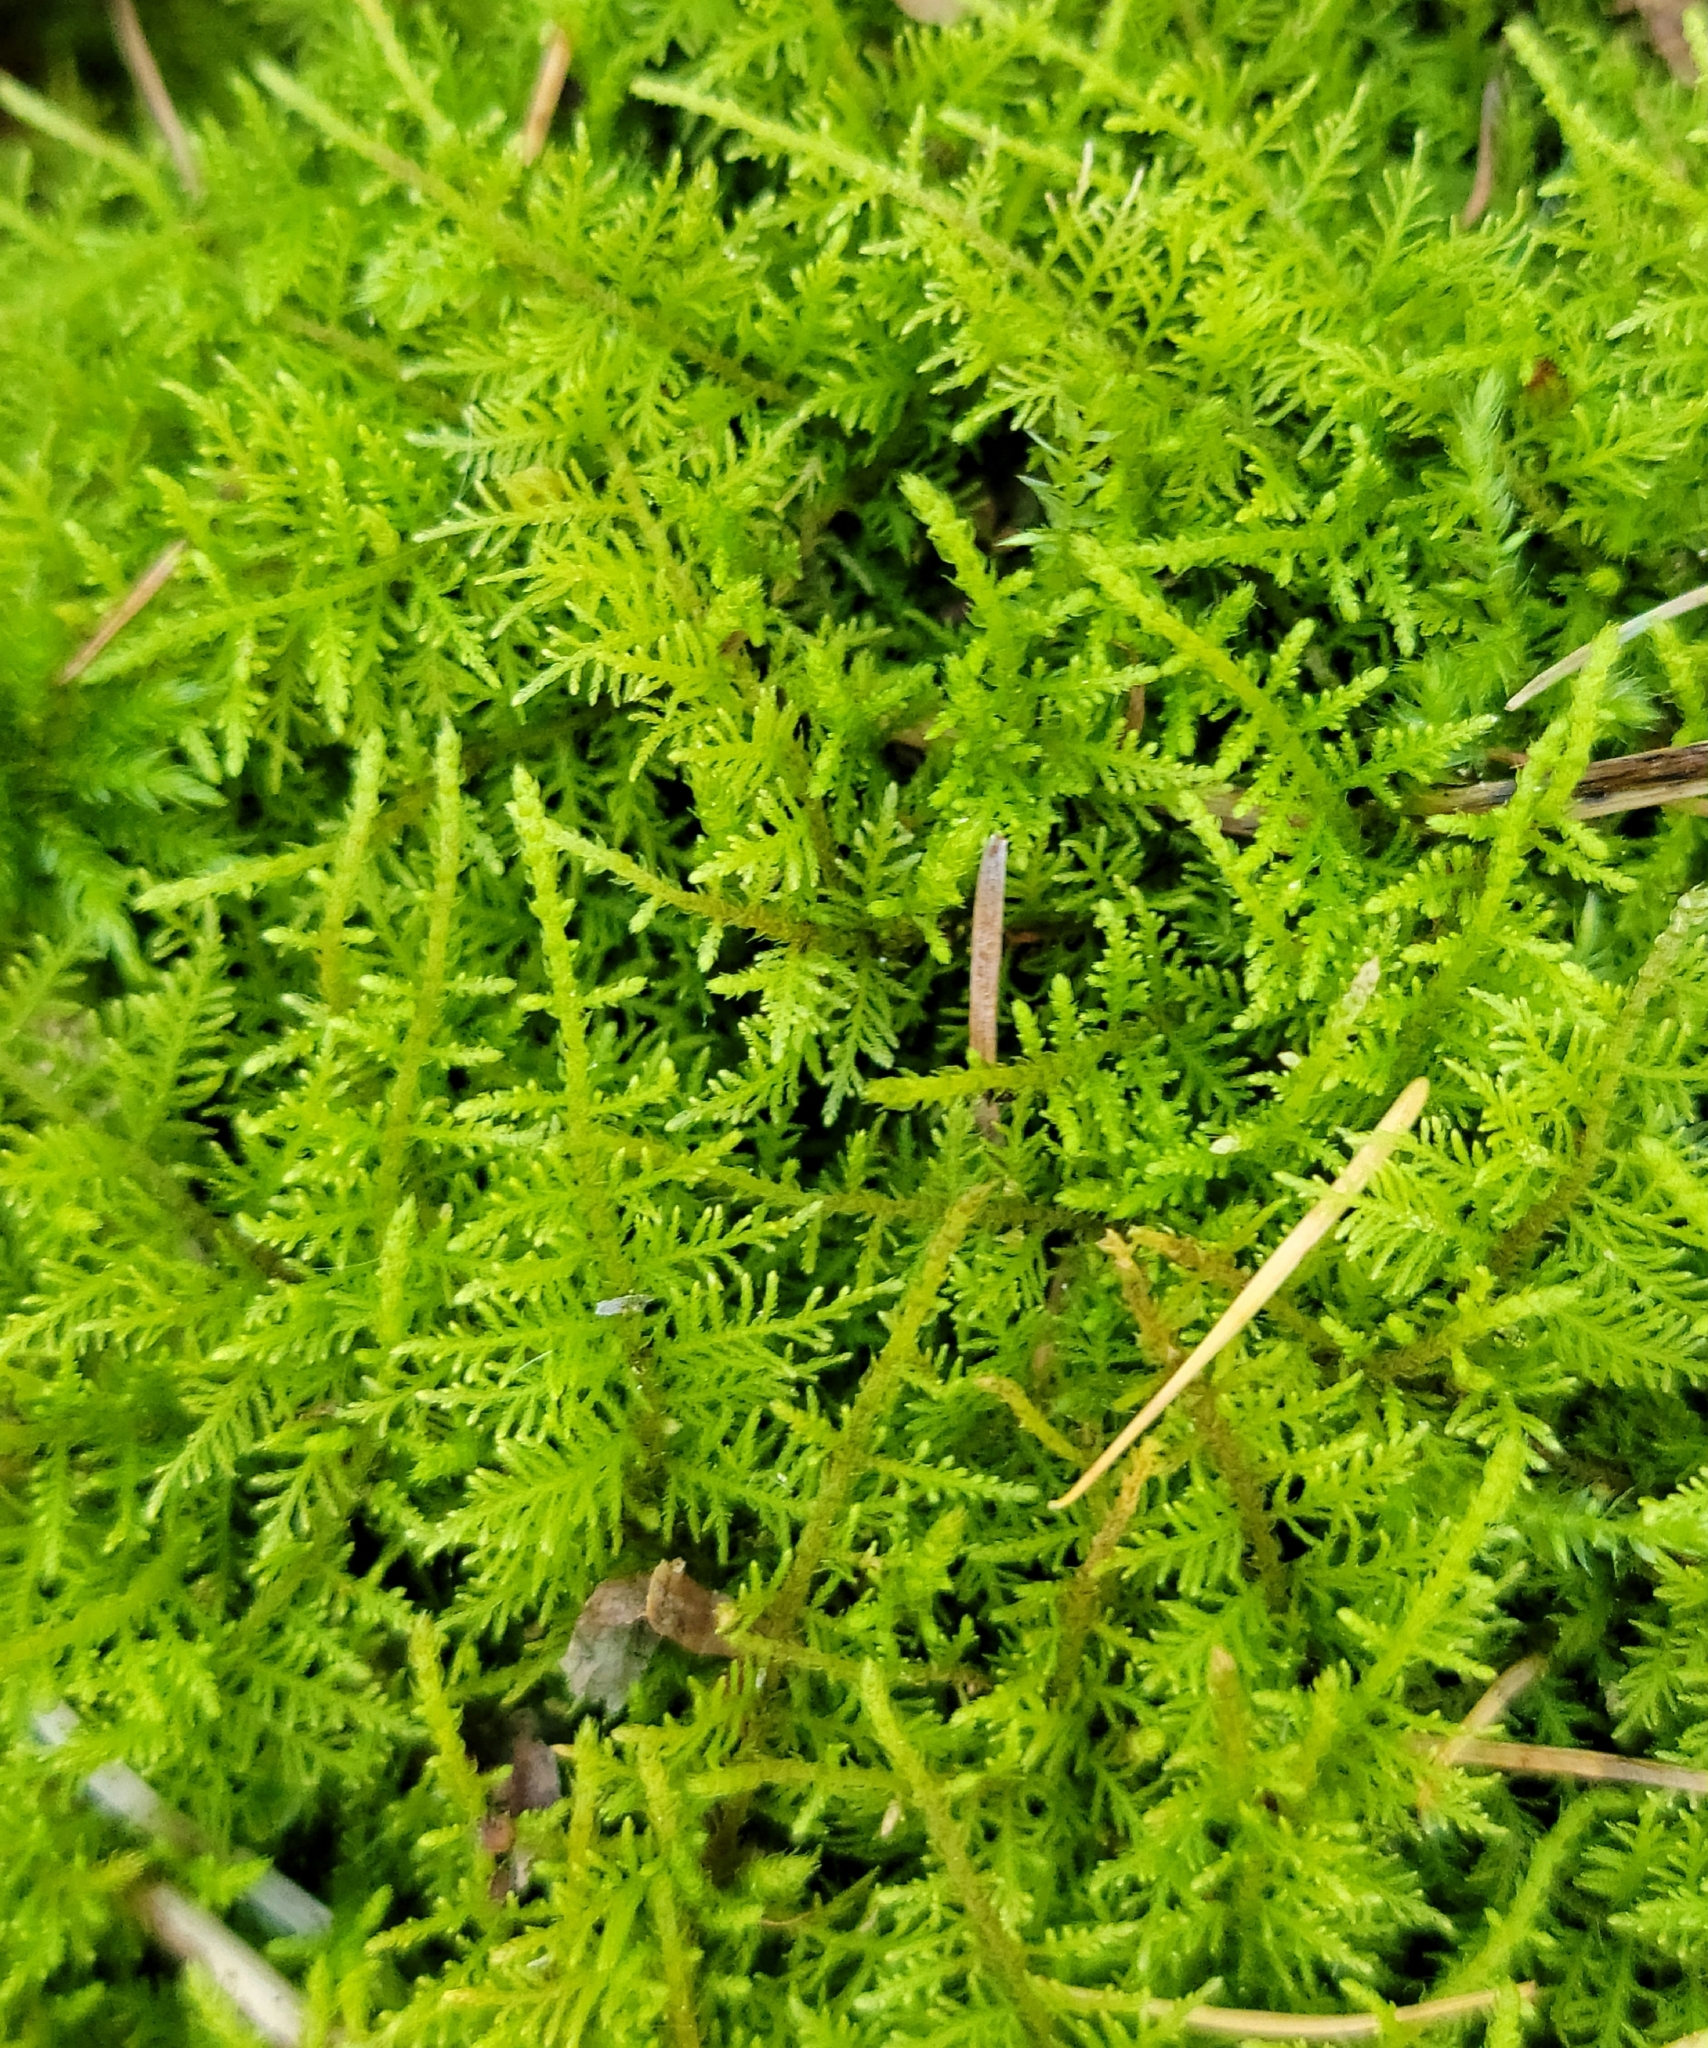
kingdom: Plantae
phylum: Bryophyta
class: Bryopsida
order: Hypnales
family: Thuidiaceae
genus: Thuidium
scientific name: Thuidium delicatulum
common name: Delicate fern moss
